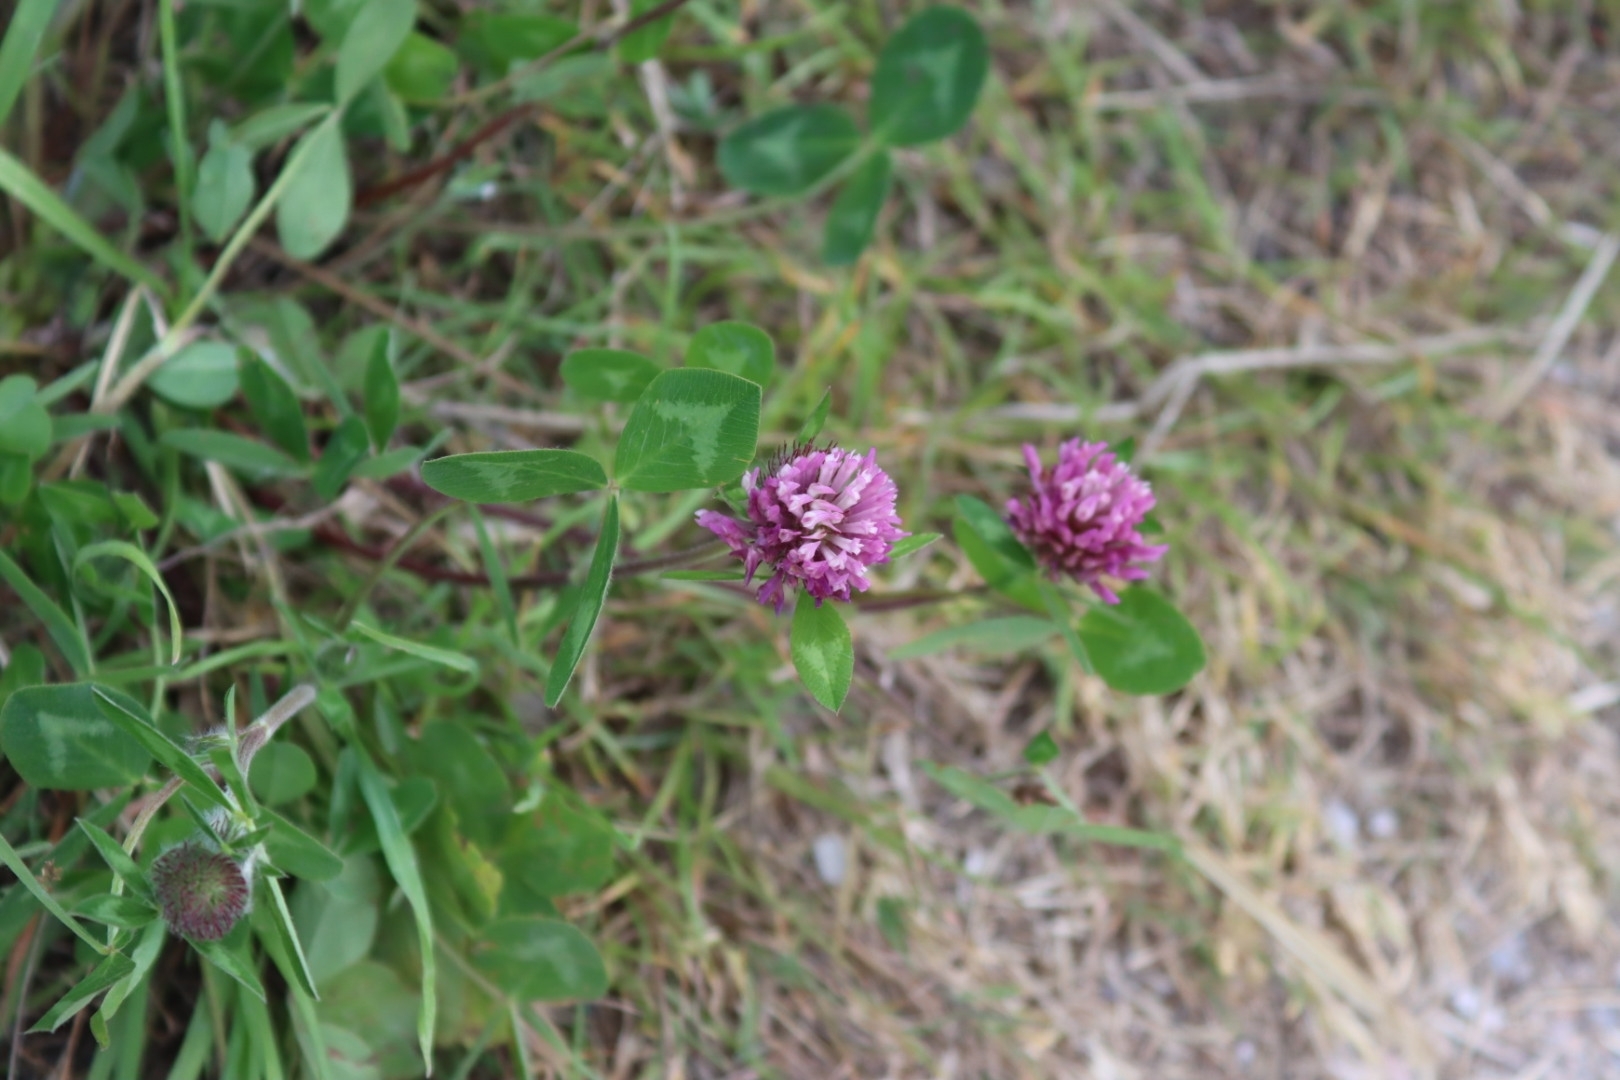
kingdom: Plantae
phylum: Tracheophyta
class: Magnoliopsida
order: Fabales
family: Fabaceae
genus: Trifolium
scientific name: Trifolium pratense
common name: Red clover
